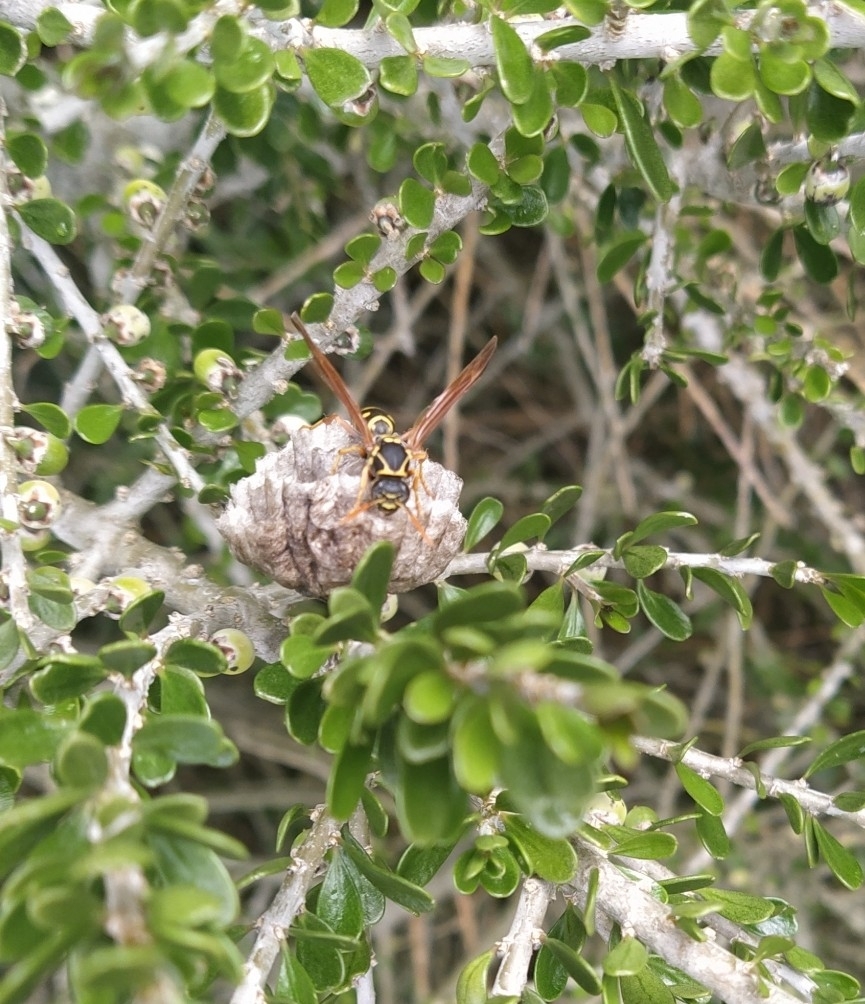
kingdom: Animalia
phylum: Arthropoda
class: Insecta
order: Hymenoptera
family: Eumenidae
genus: Polistes
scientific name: Polistes chinensis
